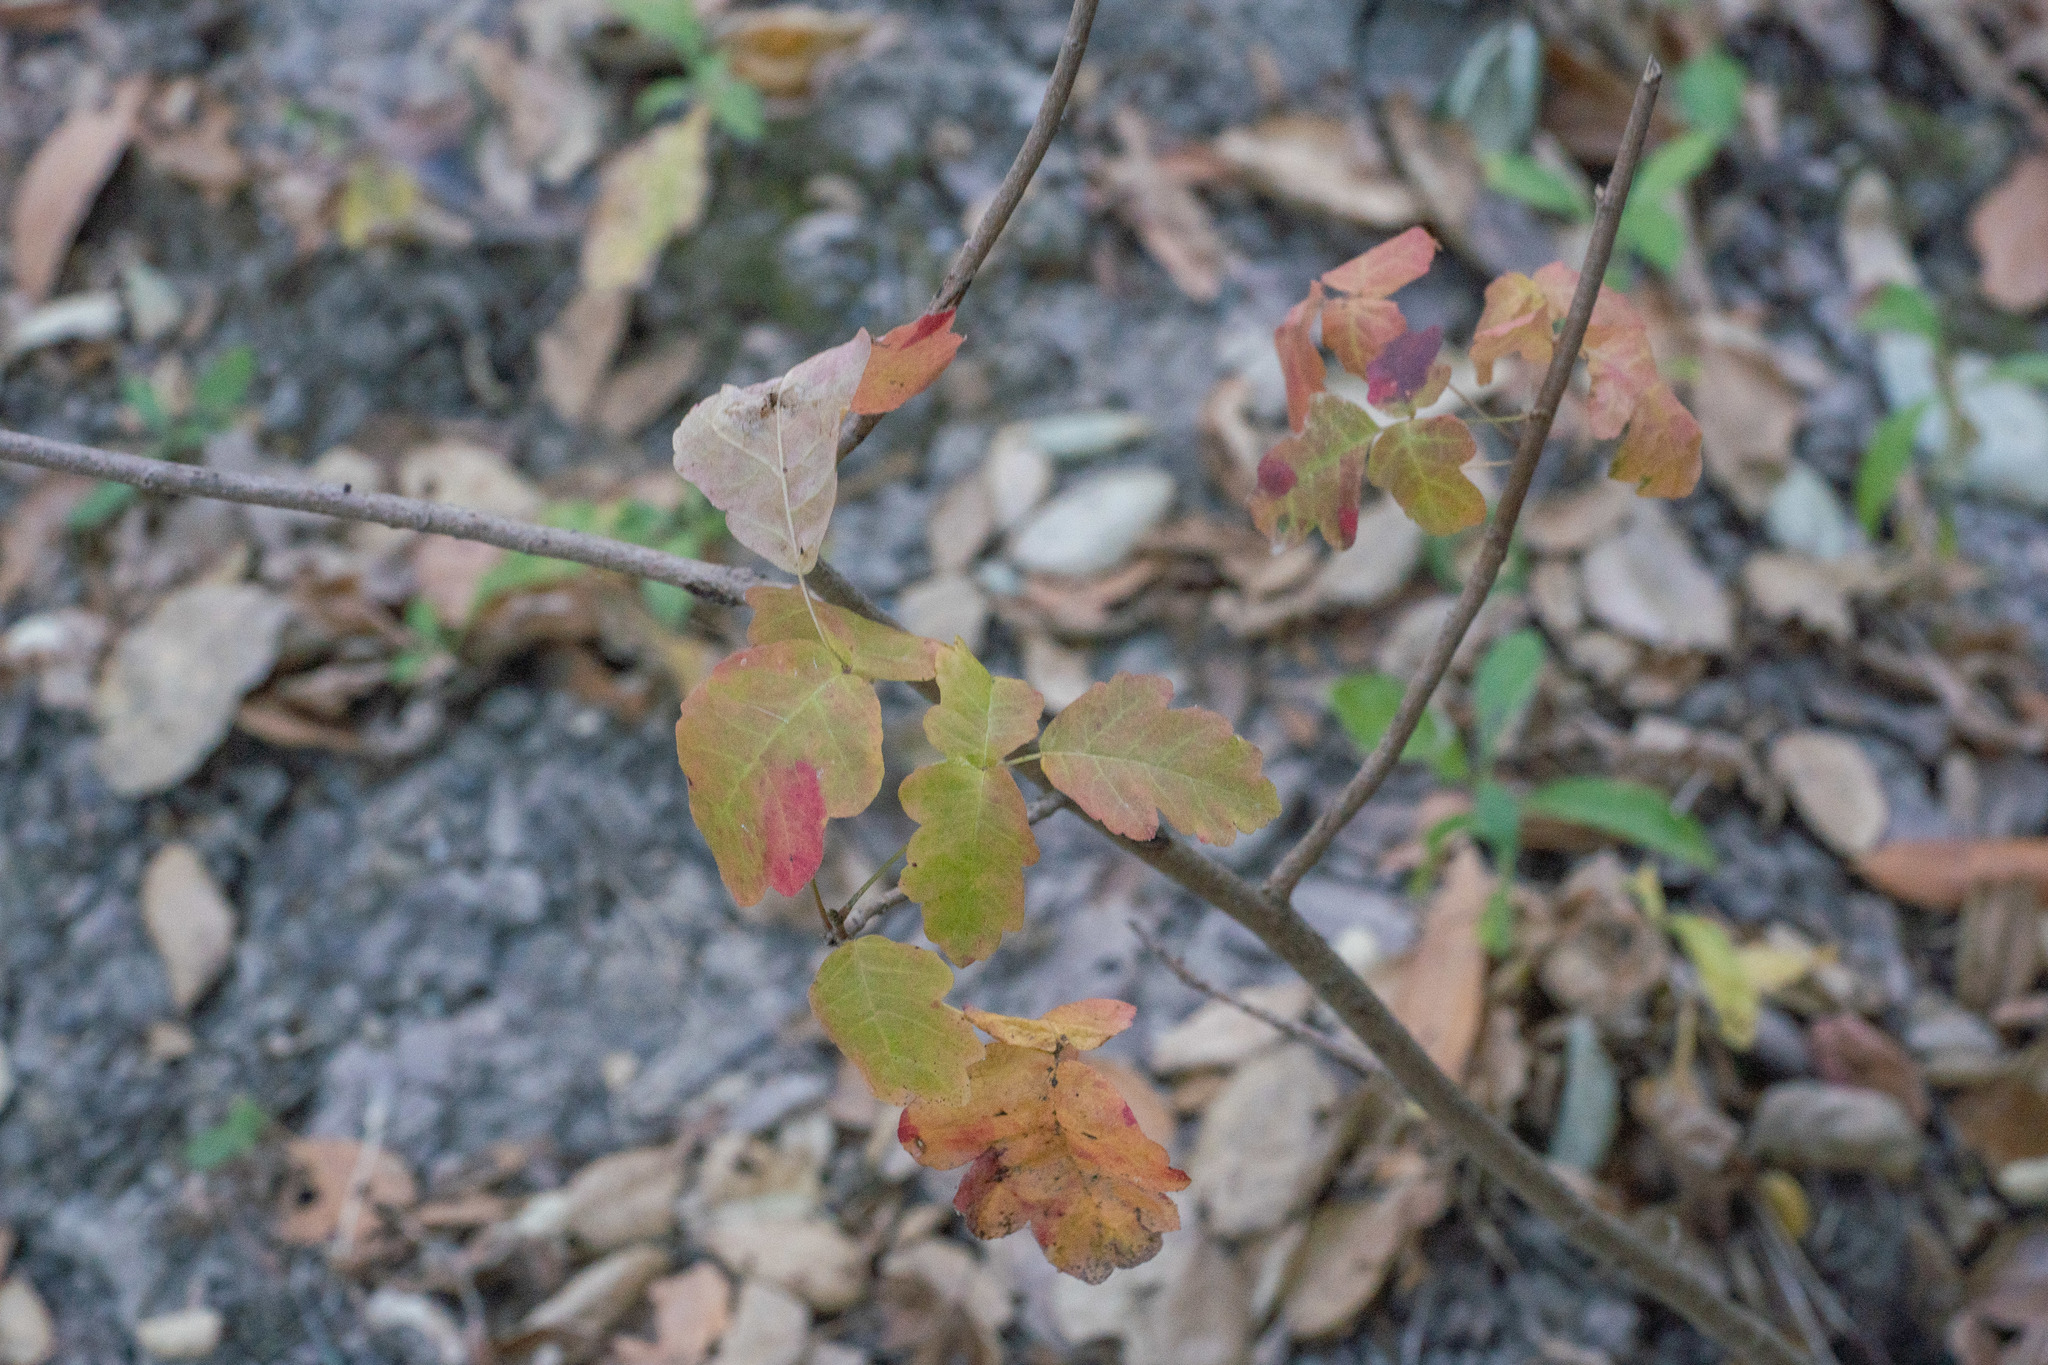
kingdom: Plantae
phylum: Tracheophyta
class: Magnoliopsida
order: Sapindales
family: Anacardiaceae
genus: Toxicodendron
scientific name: Toxicodendron diversilobum
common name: Pacific poison-oak
